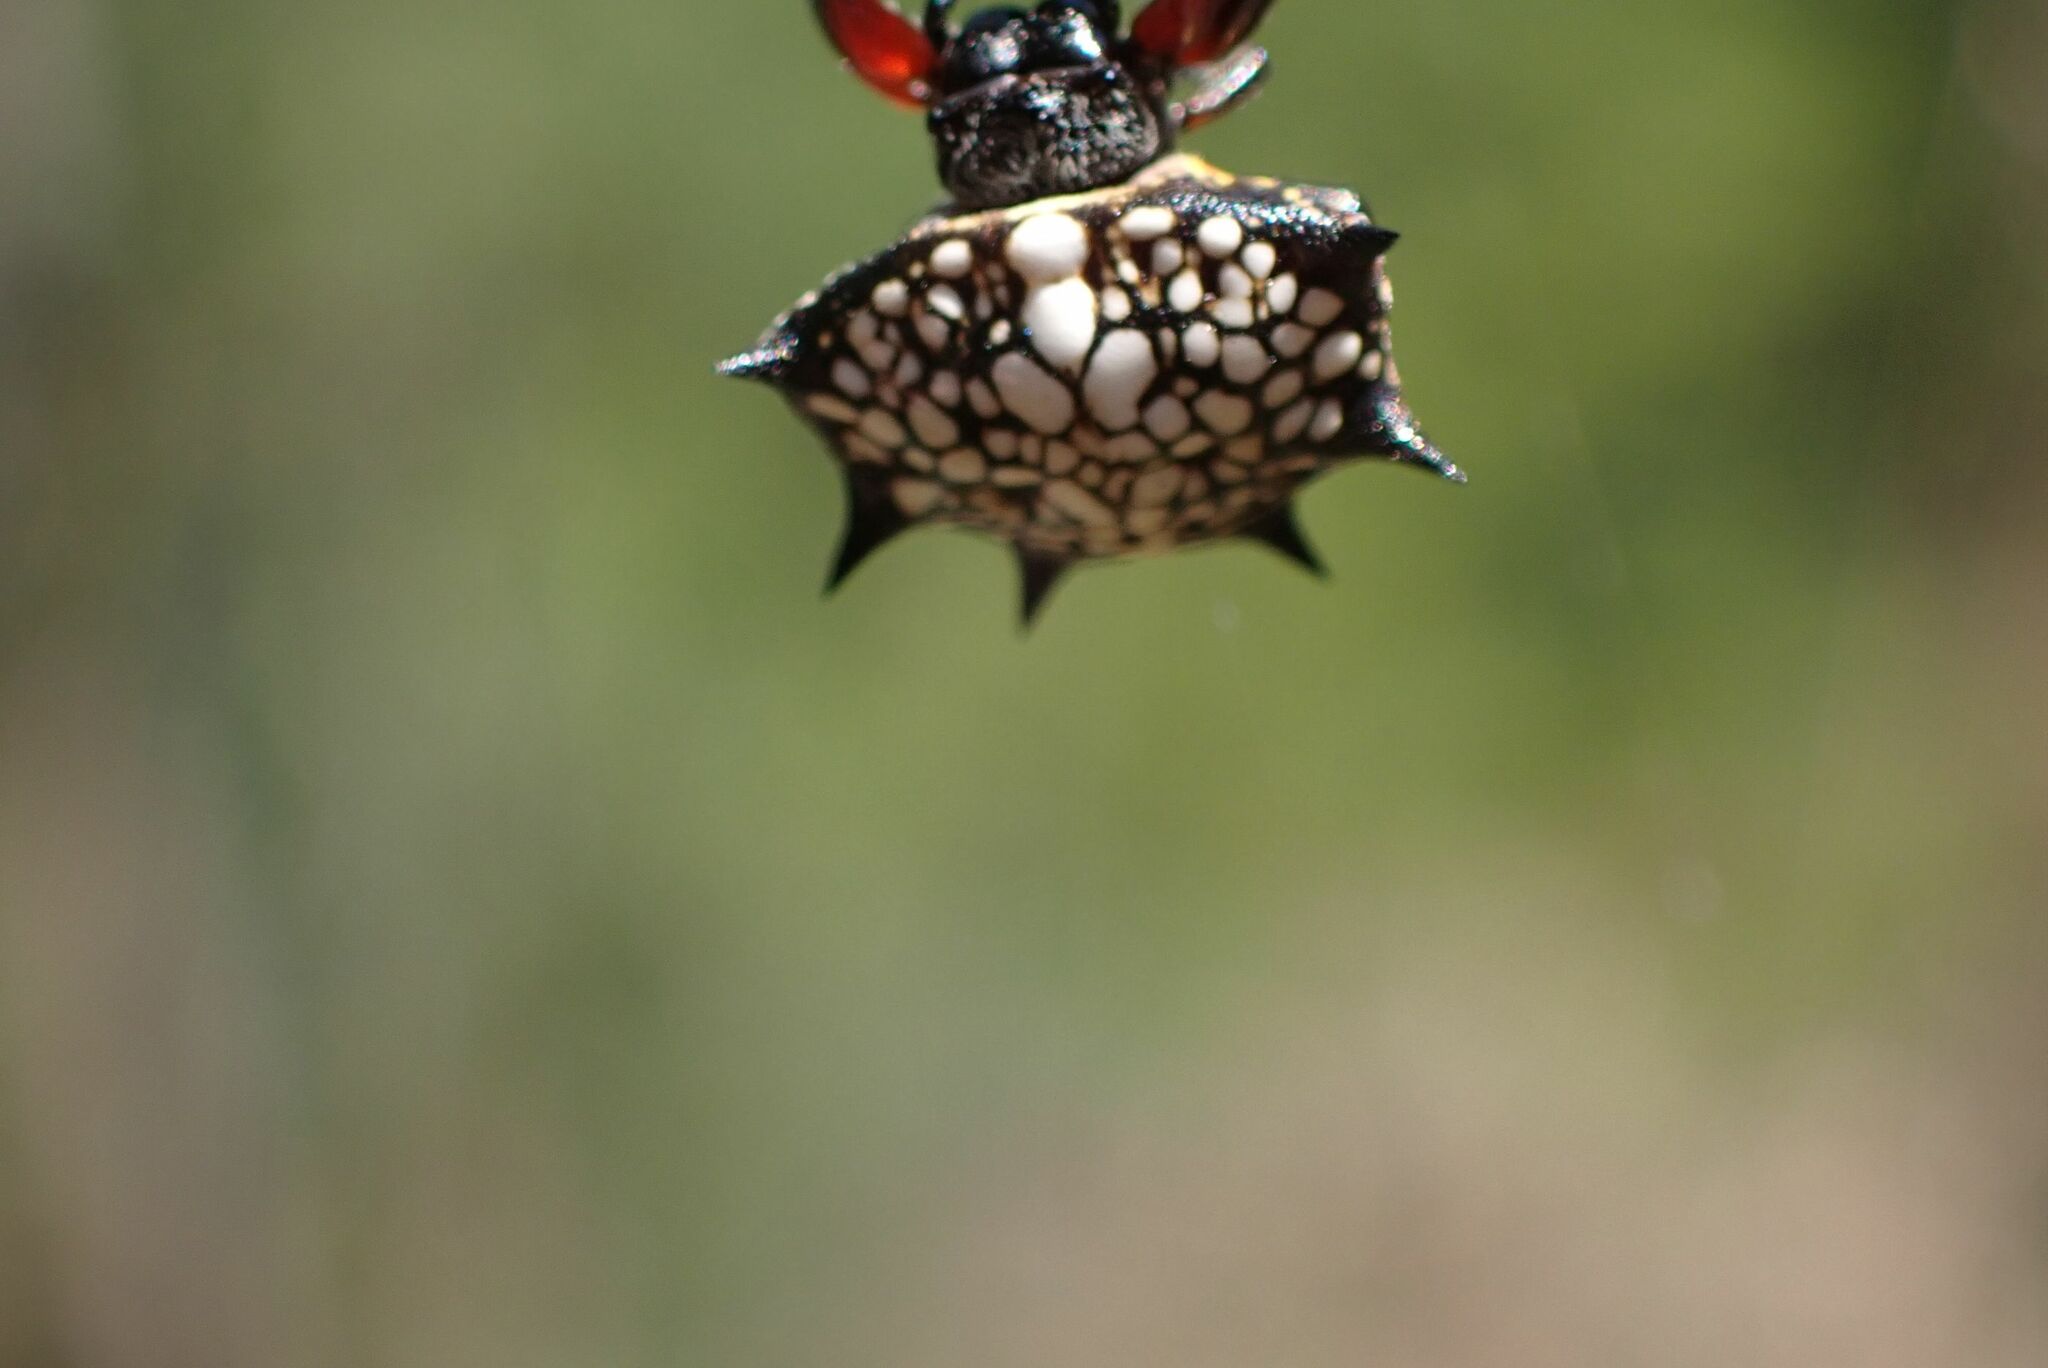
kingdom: Animalia
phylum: Arthropoda
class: Arachnida
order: Araneae
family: Araneidae
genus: Isoxya
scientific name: Isoxya cicatricosa
